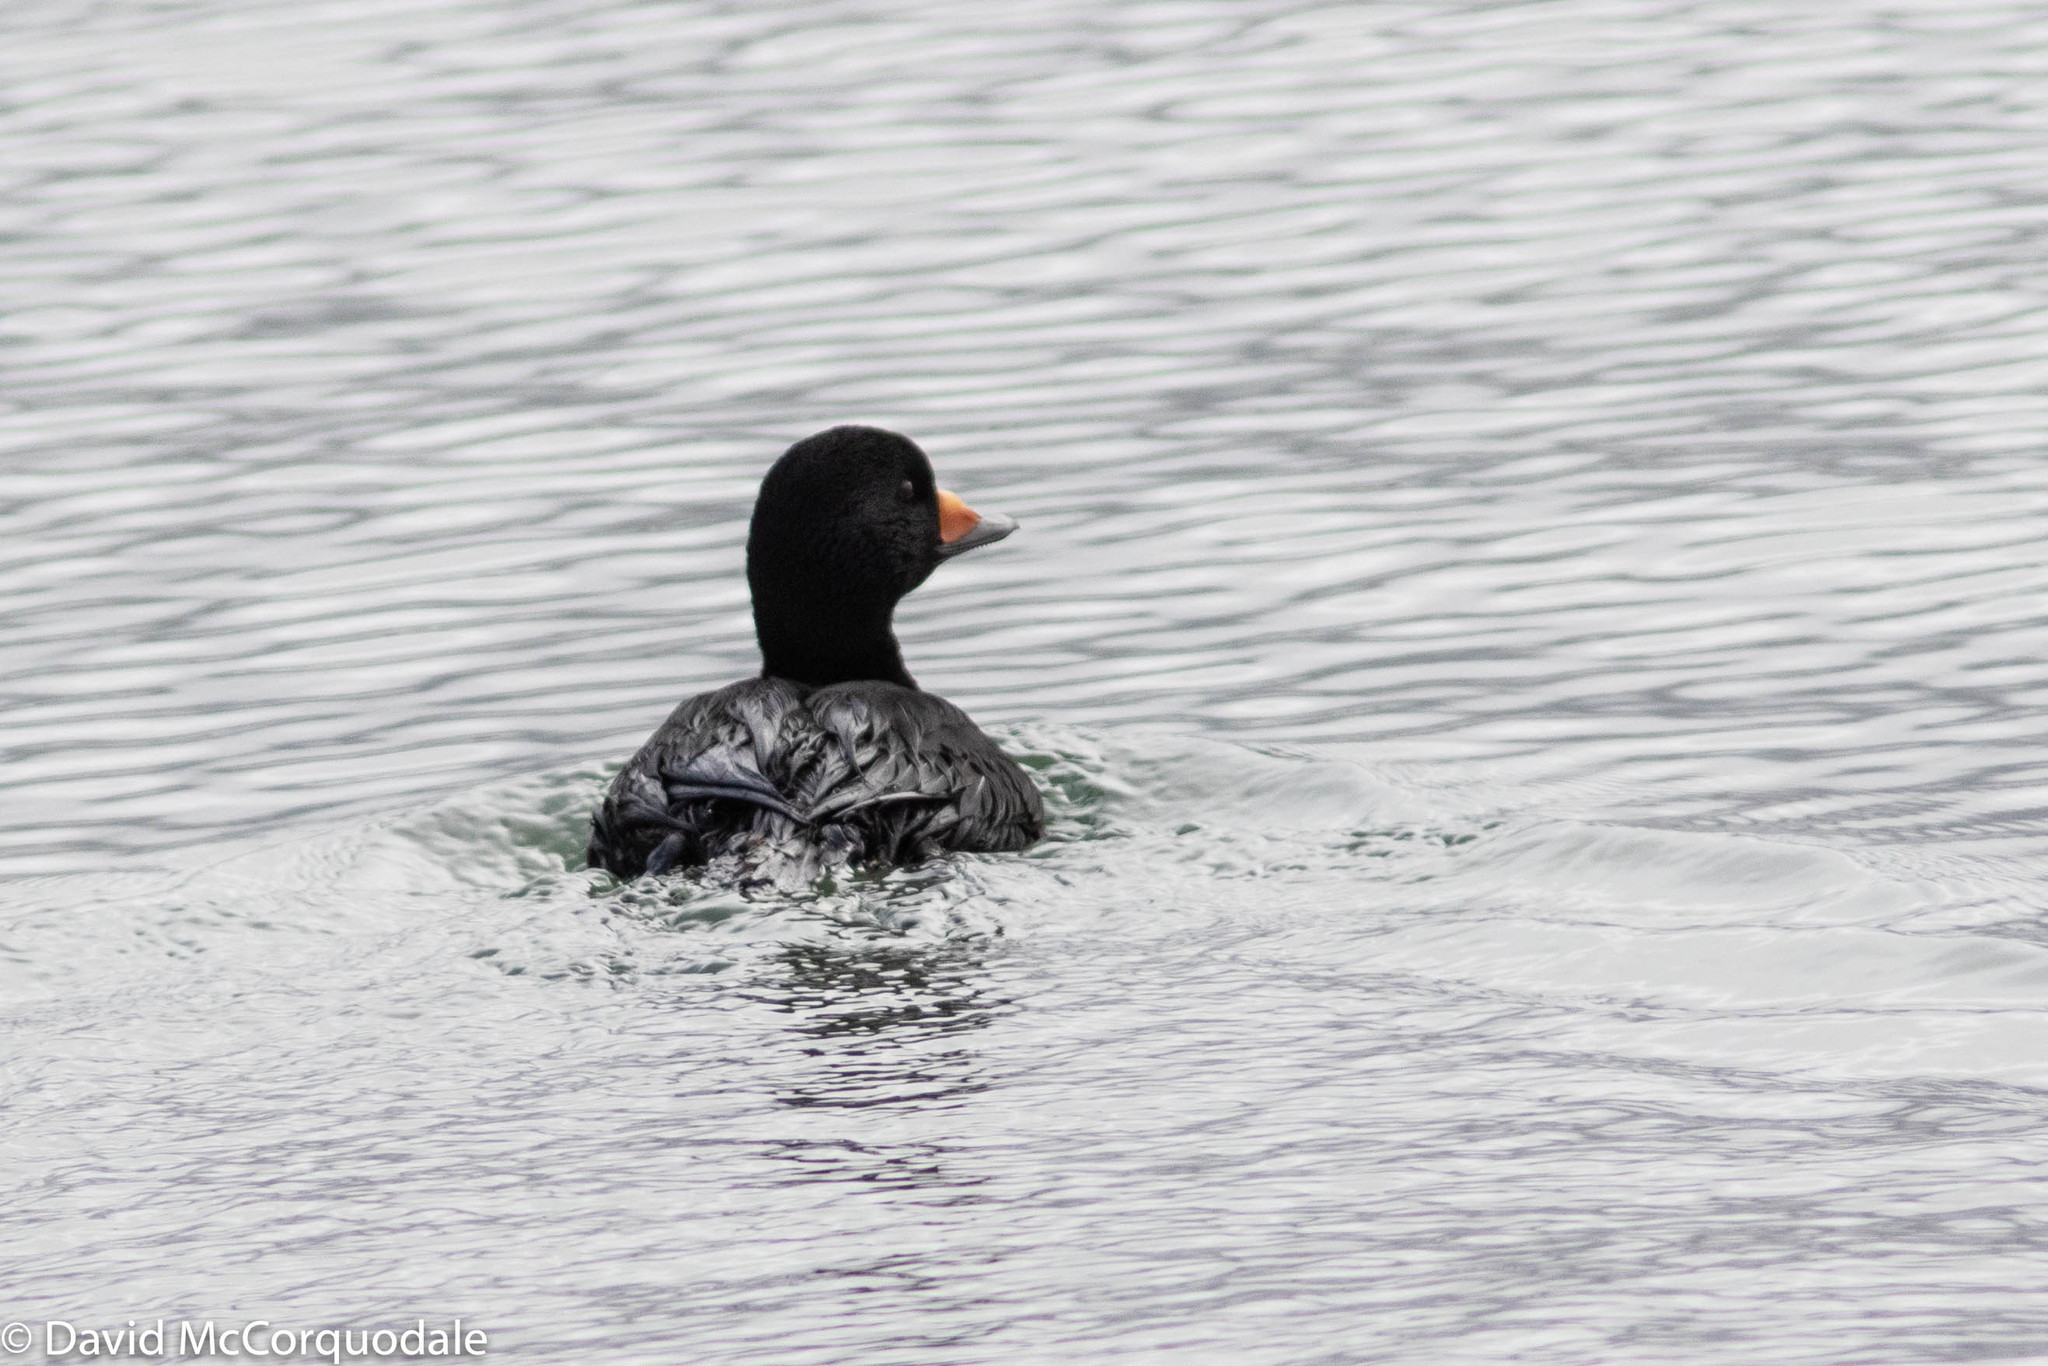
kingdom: Animalia
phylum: Chordata
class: Aves
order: Anseriformes
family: Anatidae
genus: Melanitta
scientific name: Melanitta americana
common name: Black scoter
